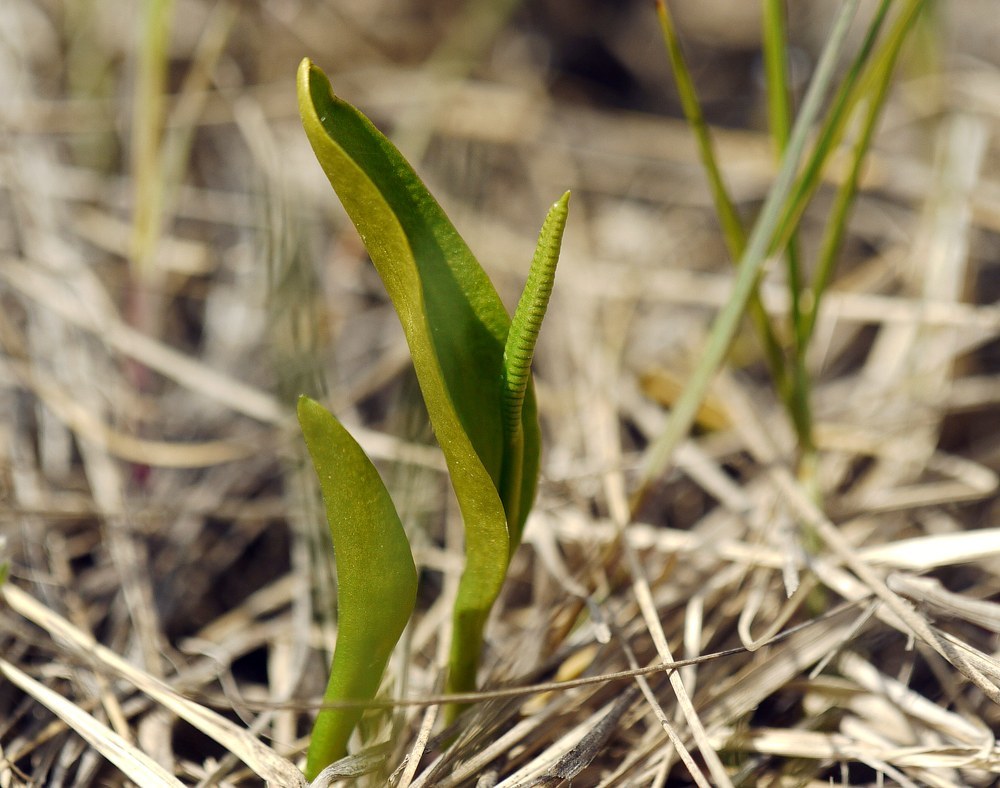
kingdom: Plantae
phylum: Tracheophyta
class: Polypodiopsida
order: Ophioglossales
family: Ophioglossaceae
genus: Ophioglossum
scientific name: Ophioglossum vulgatum
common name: Adder's-tongue
